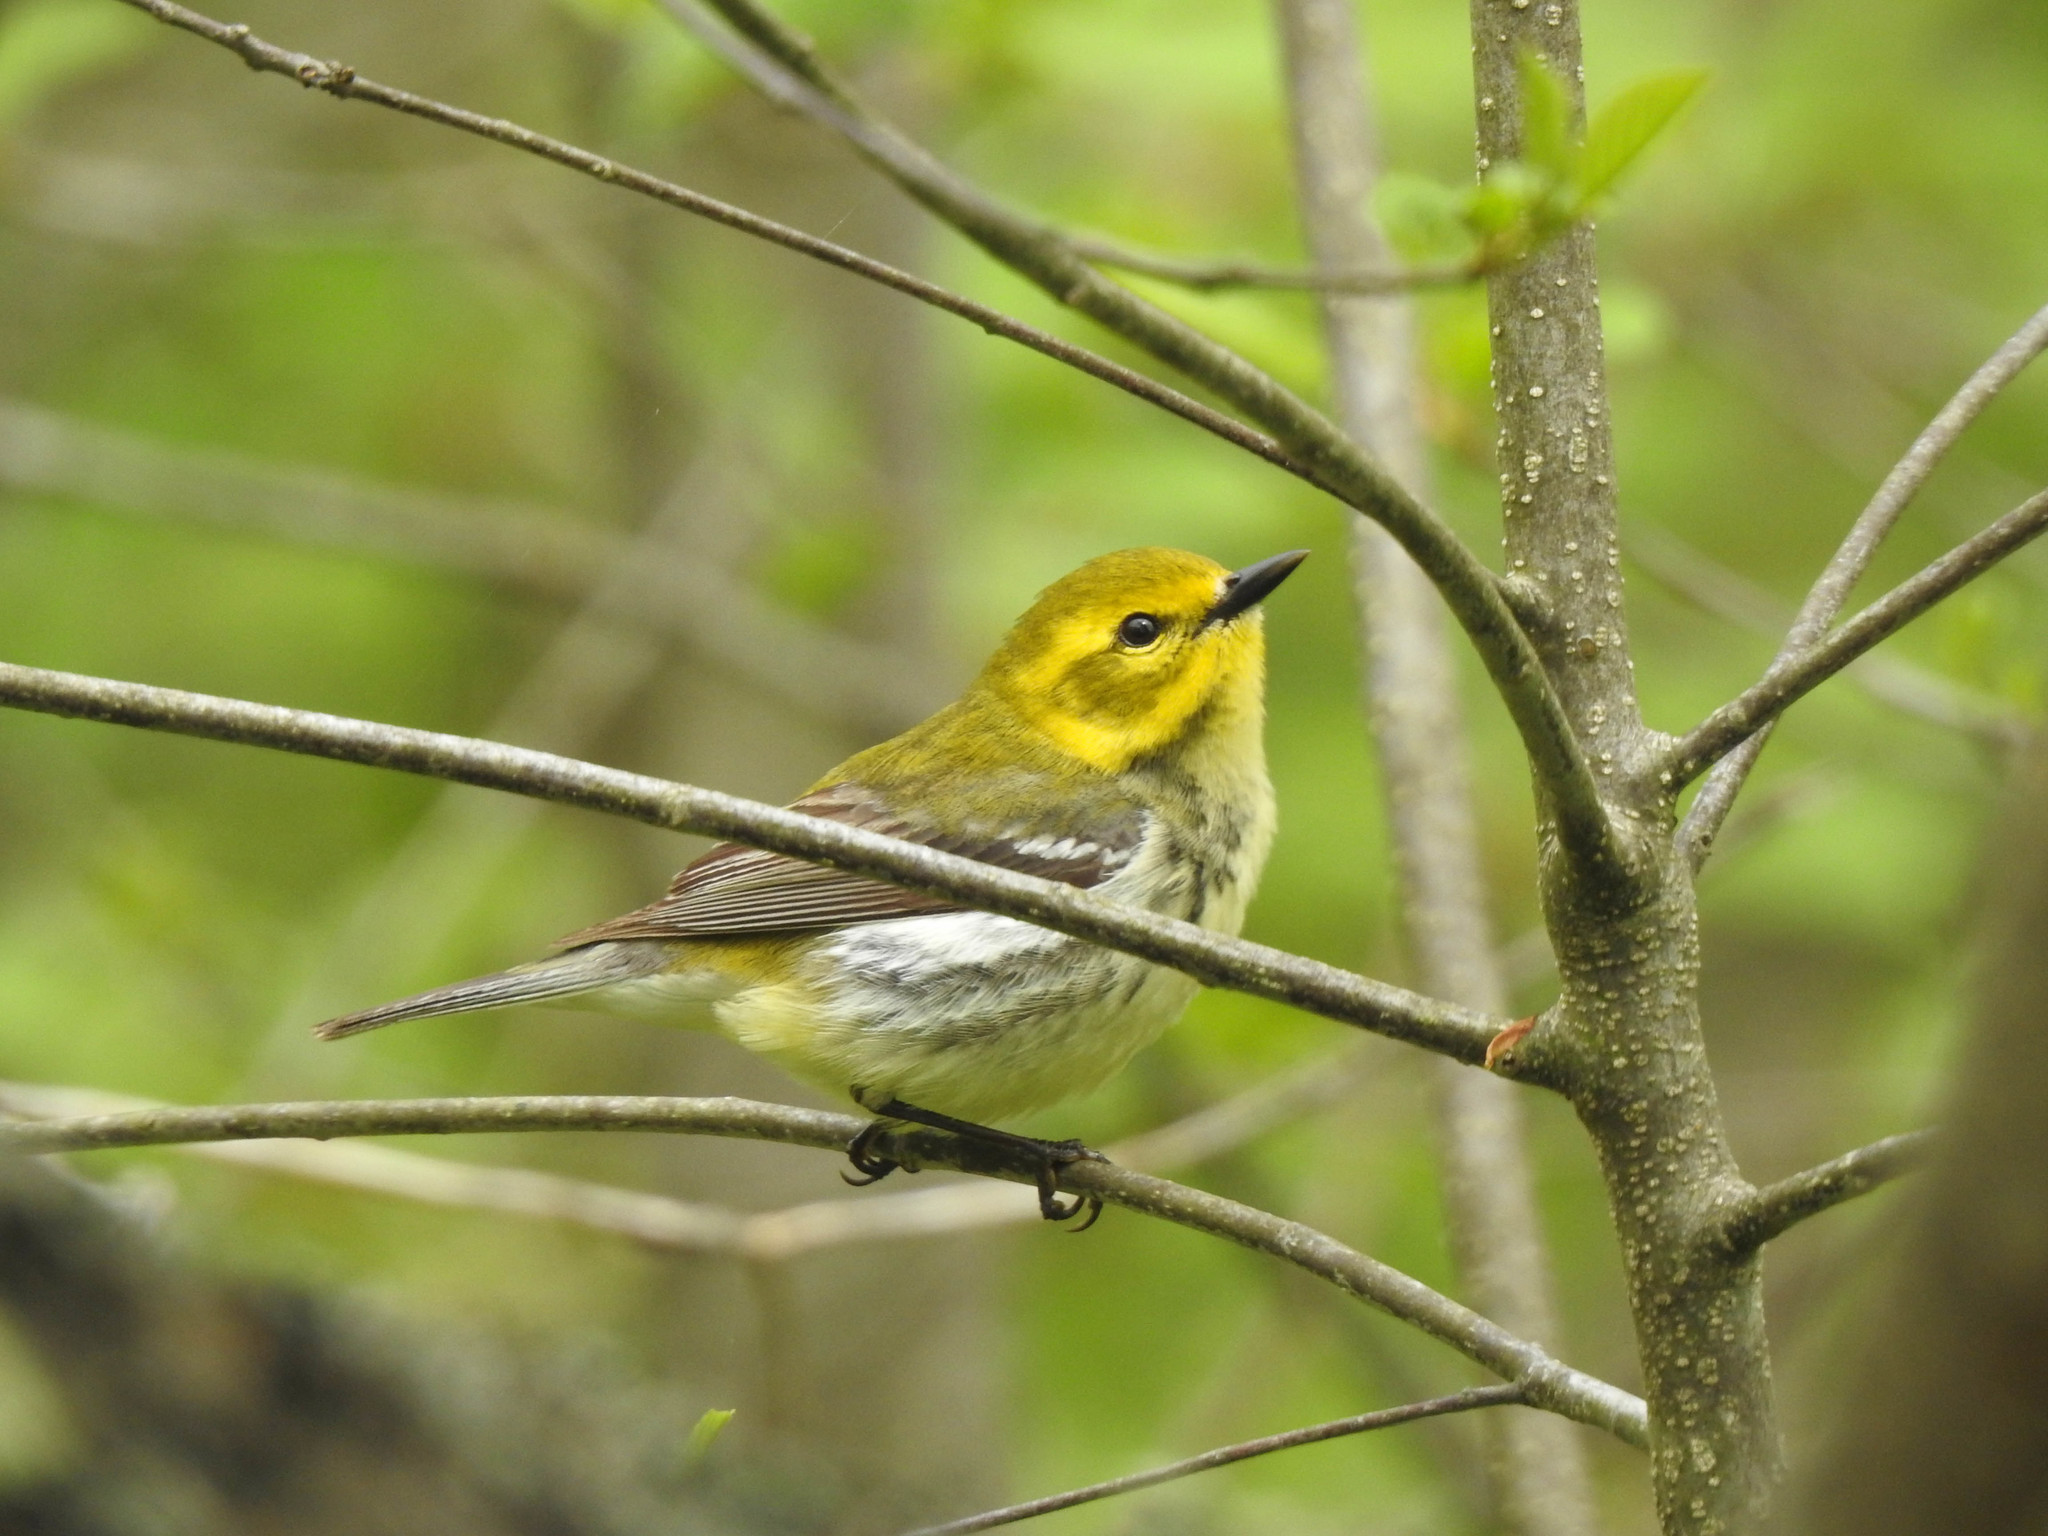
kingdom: Animalia
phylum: Chordata
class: Aves
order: Passeriformes
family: Parulidae
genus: Setophaga
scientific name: Setophaga virens
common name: Black-throated green warbler
